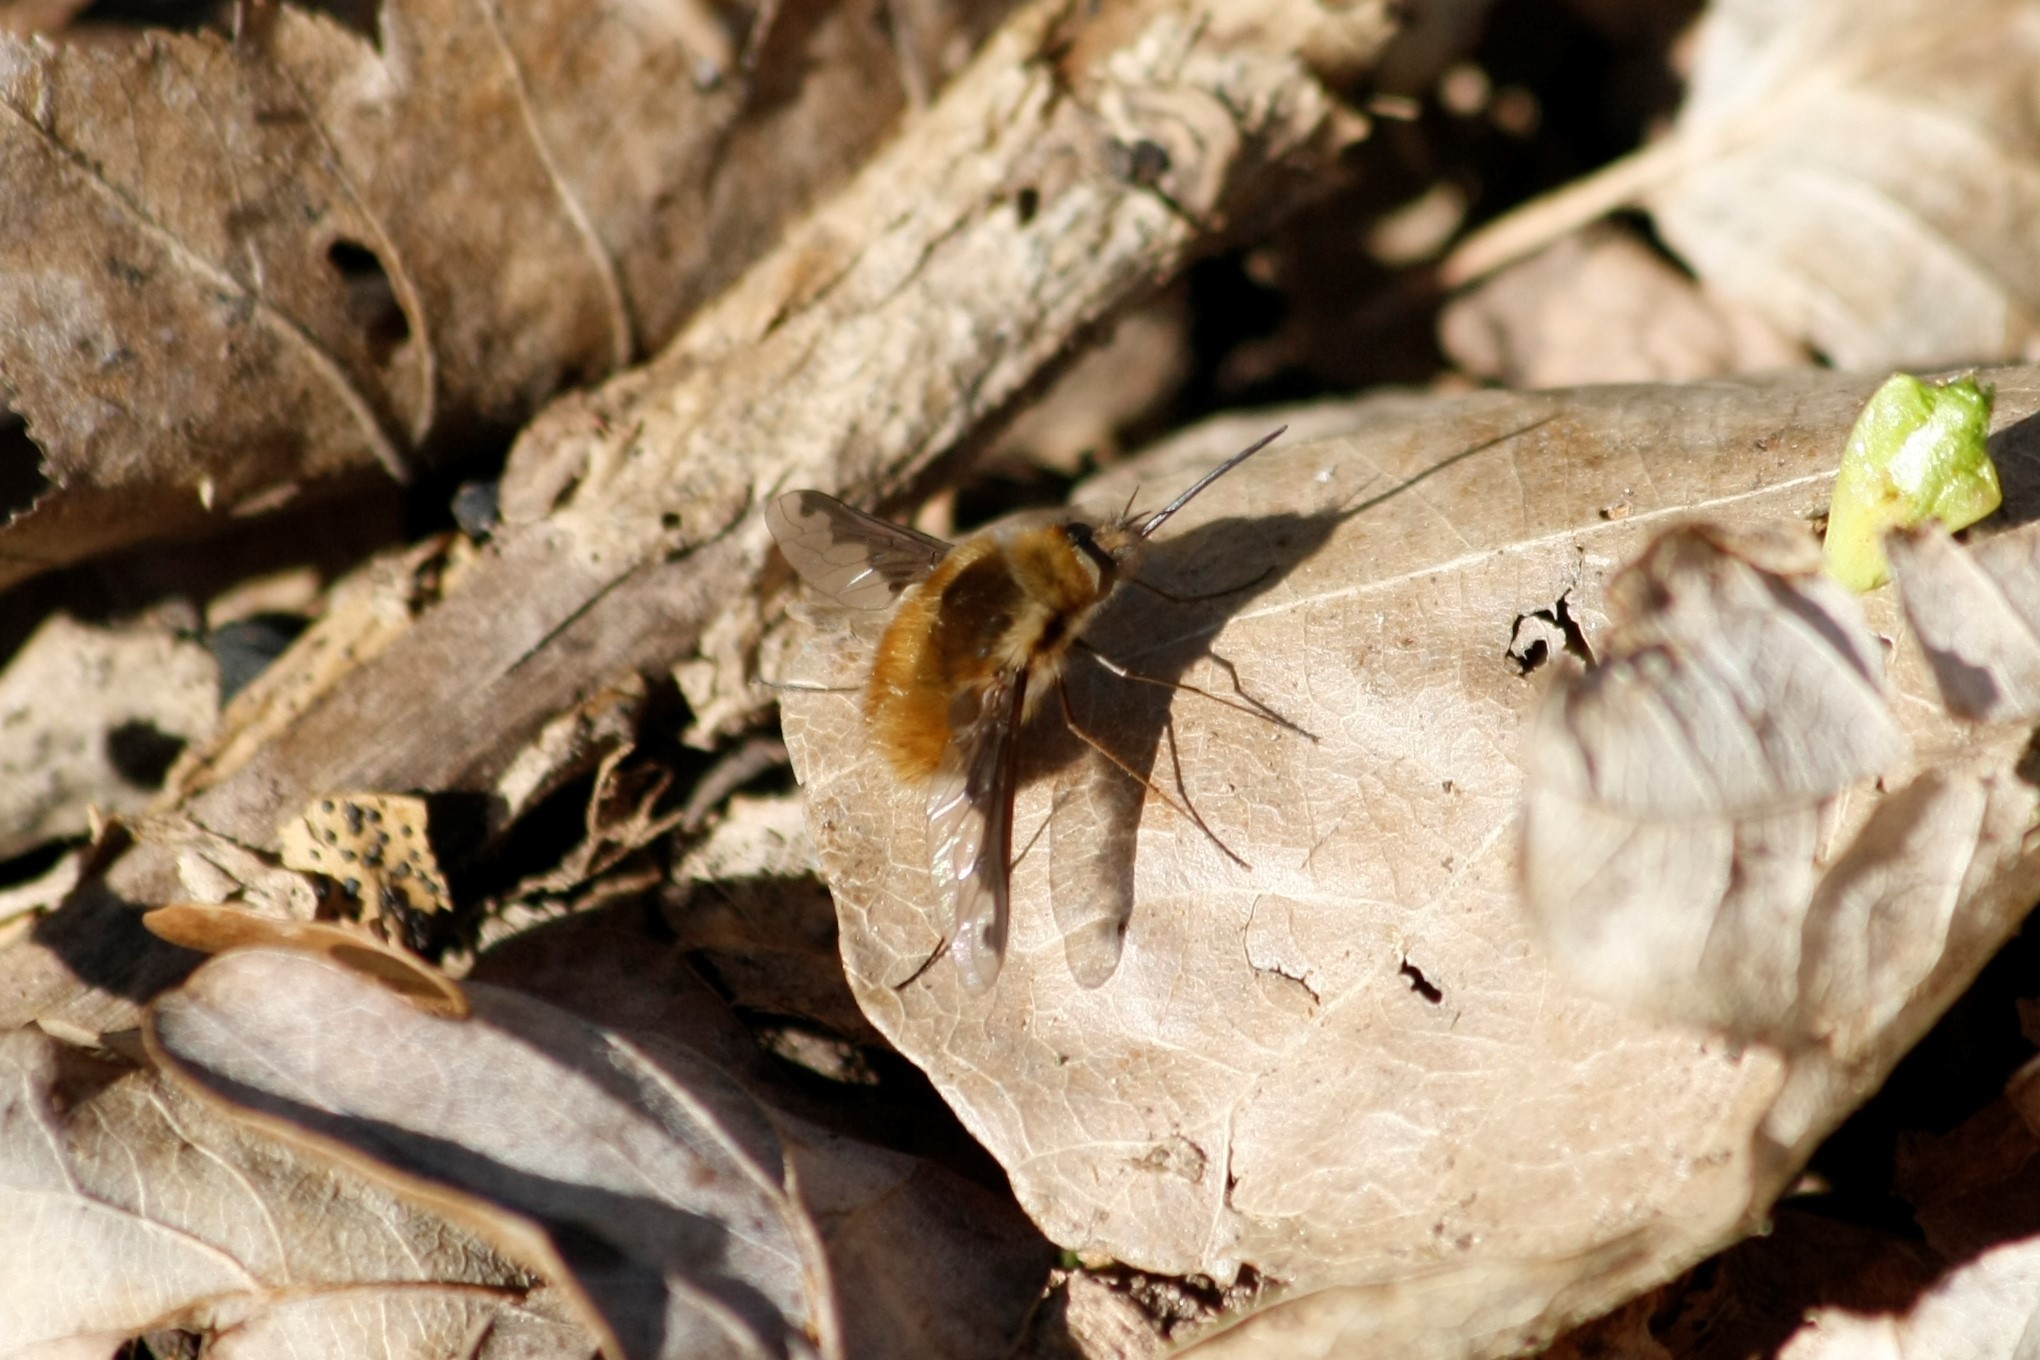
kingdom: Animalia
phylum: Arthropoda
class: Insecta
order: Diptera
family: Bombyliidae
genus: Bombylius
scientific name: Bombylius major
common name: Bee fly
